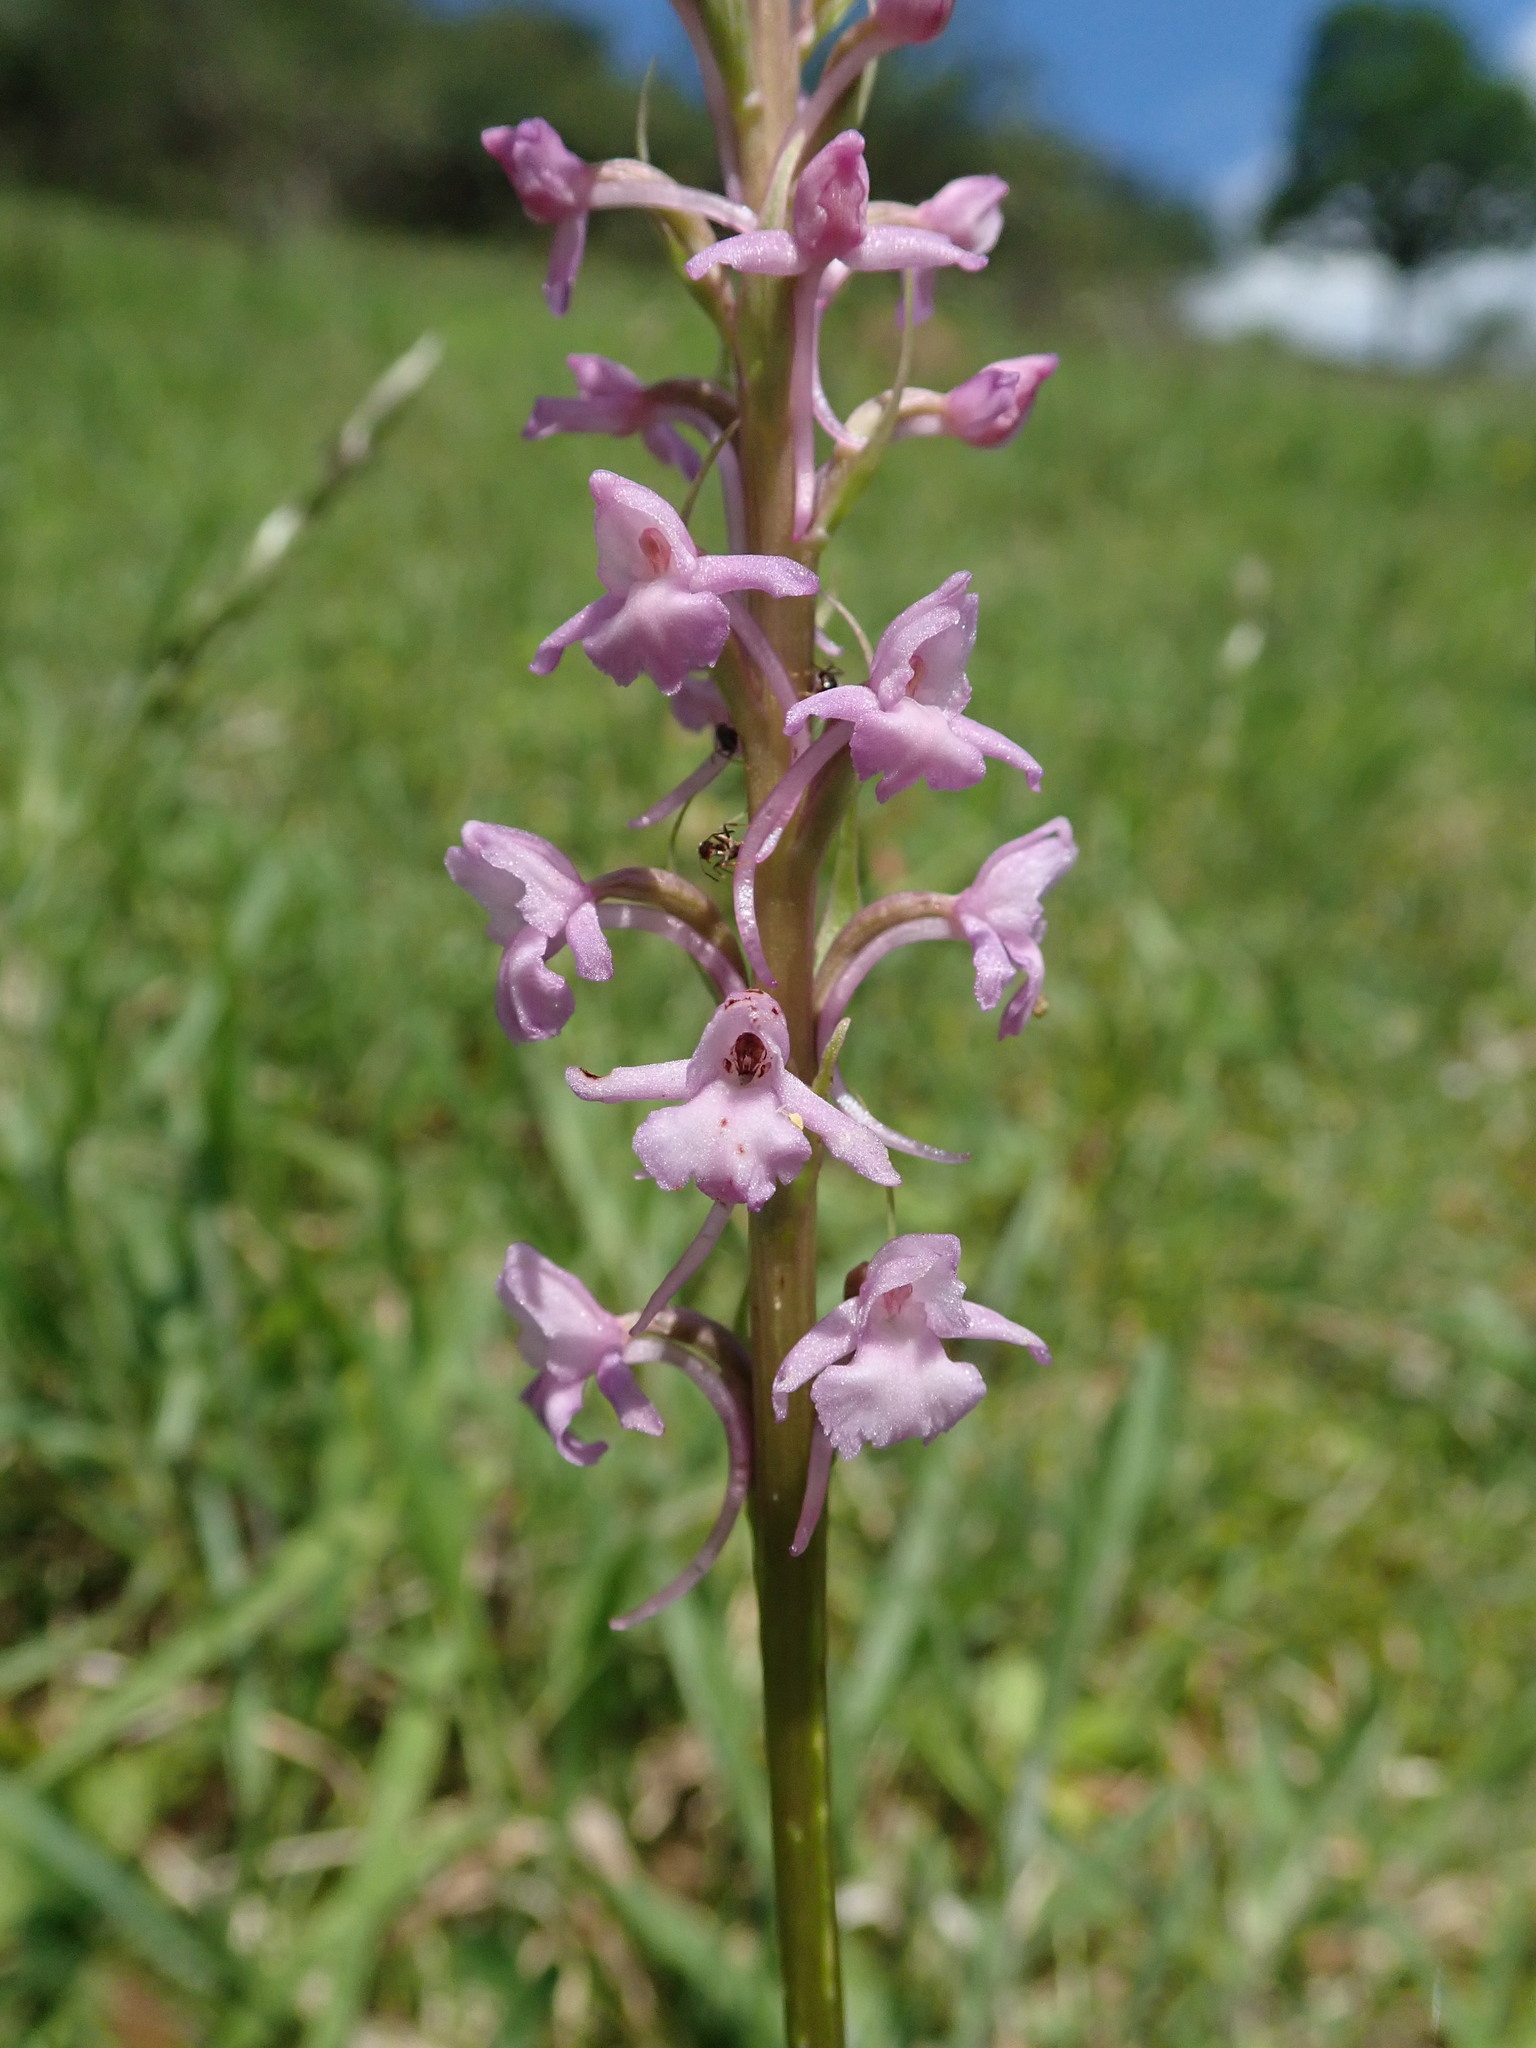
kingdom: Plantae
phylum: Tracheophyta
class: Liliopsida
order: Asparagales
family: Orchidaceae
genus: Gymnadenia
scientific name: Gymnadenia conopsea
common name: Fragrant orchid
